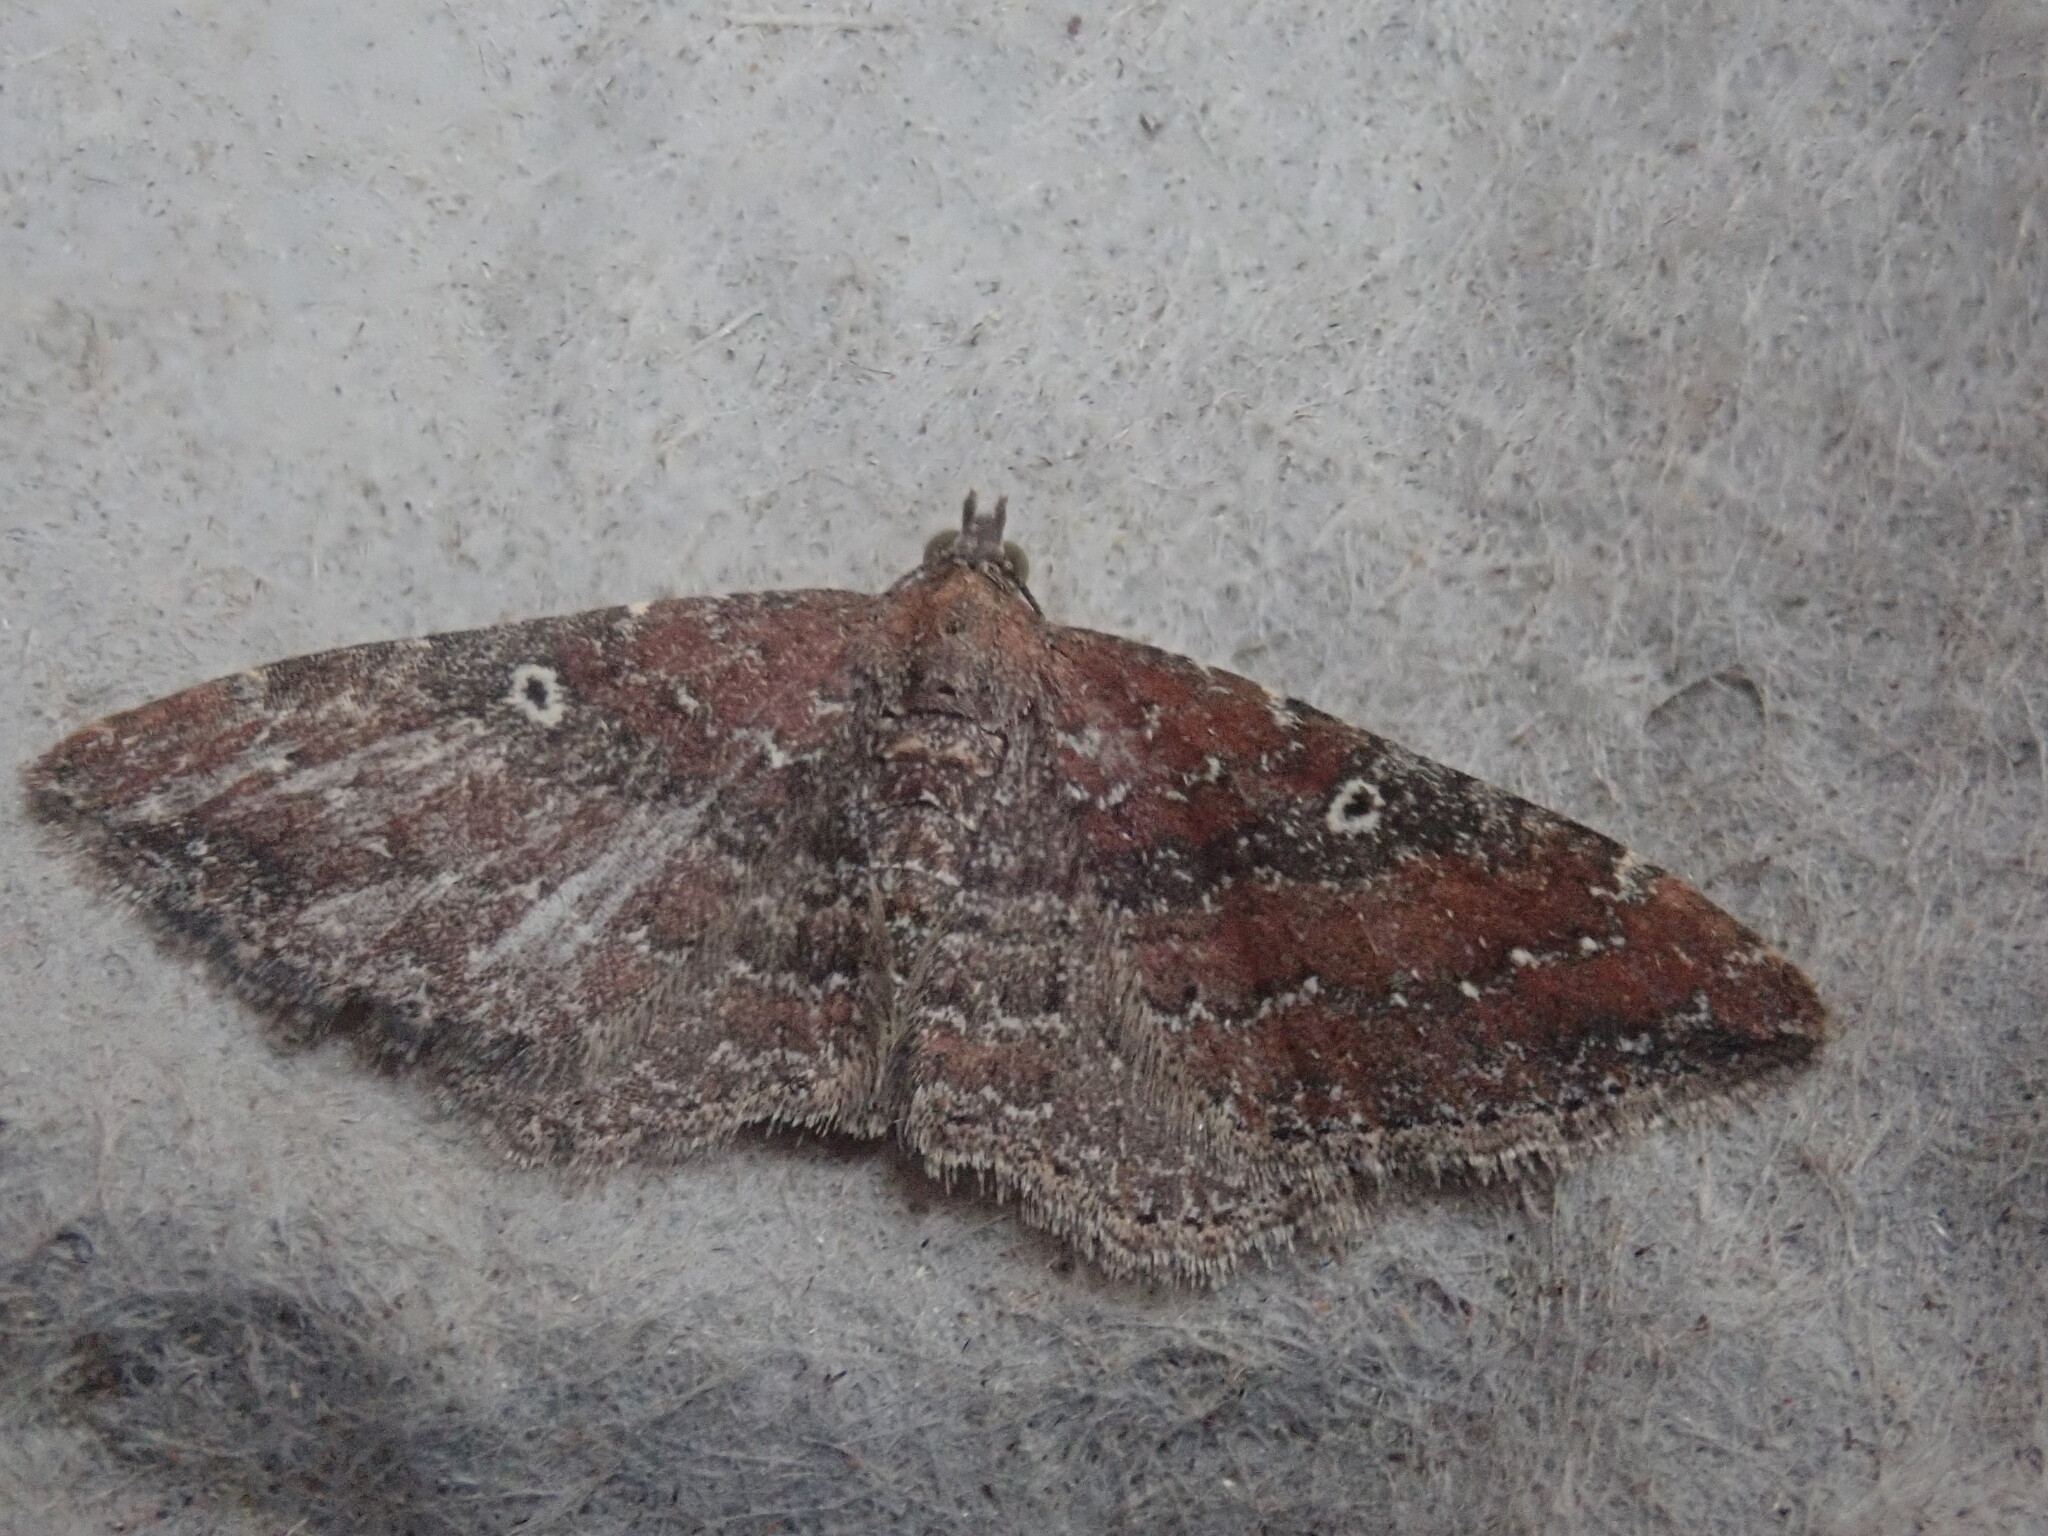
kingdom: Animalia
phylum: Arthropoda
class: Insecta
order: Lepidoptera
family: Geometridae
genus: Orthonama
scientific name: Orthonama obstipata
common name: The gem
